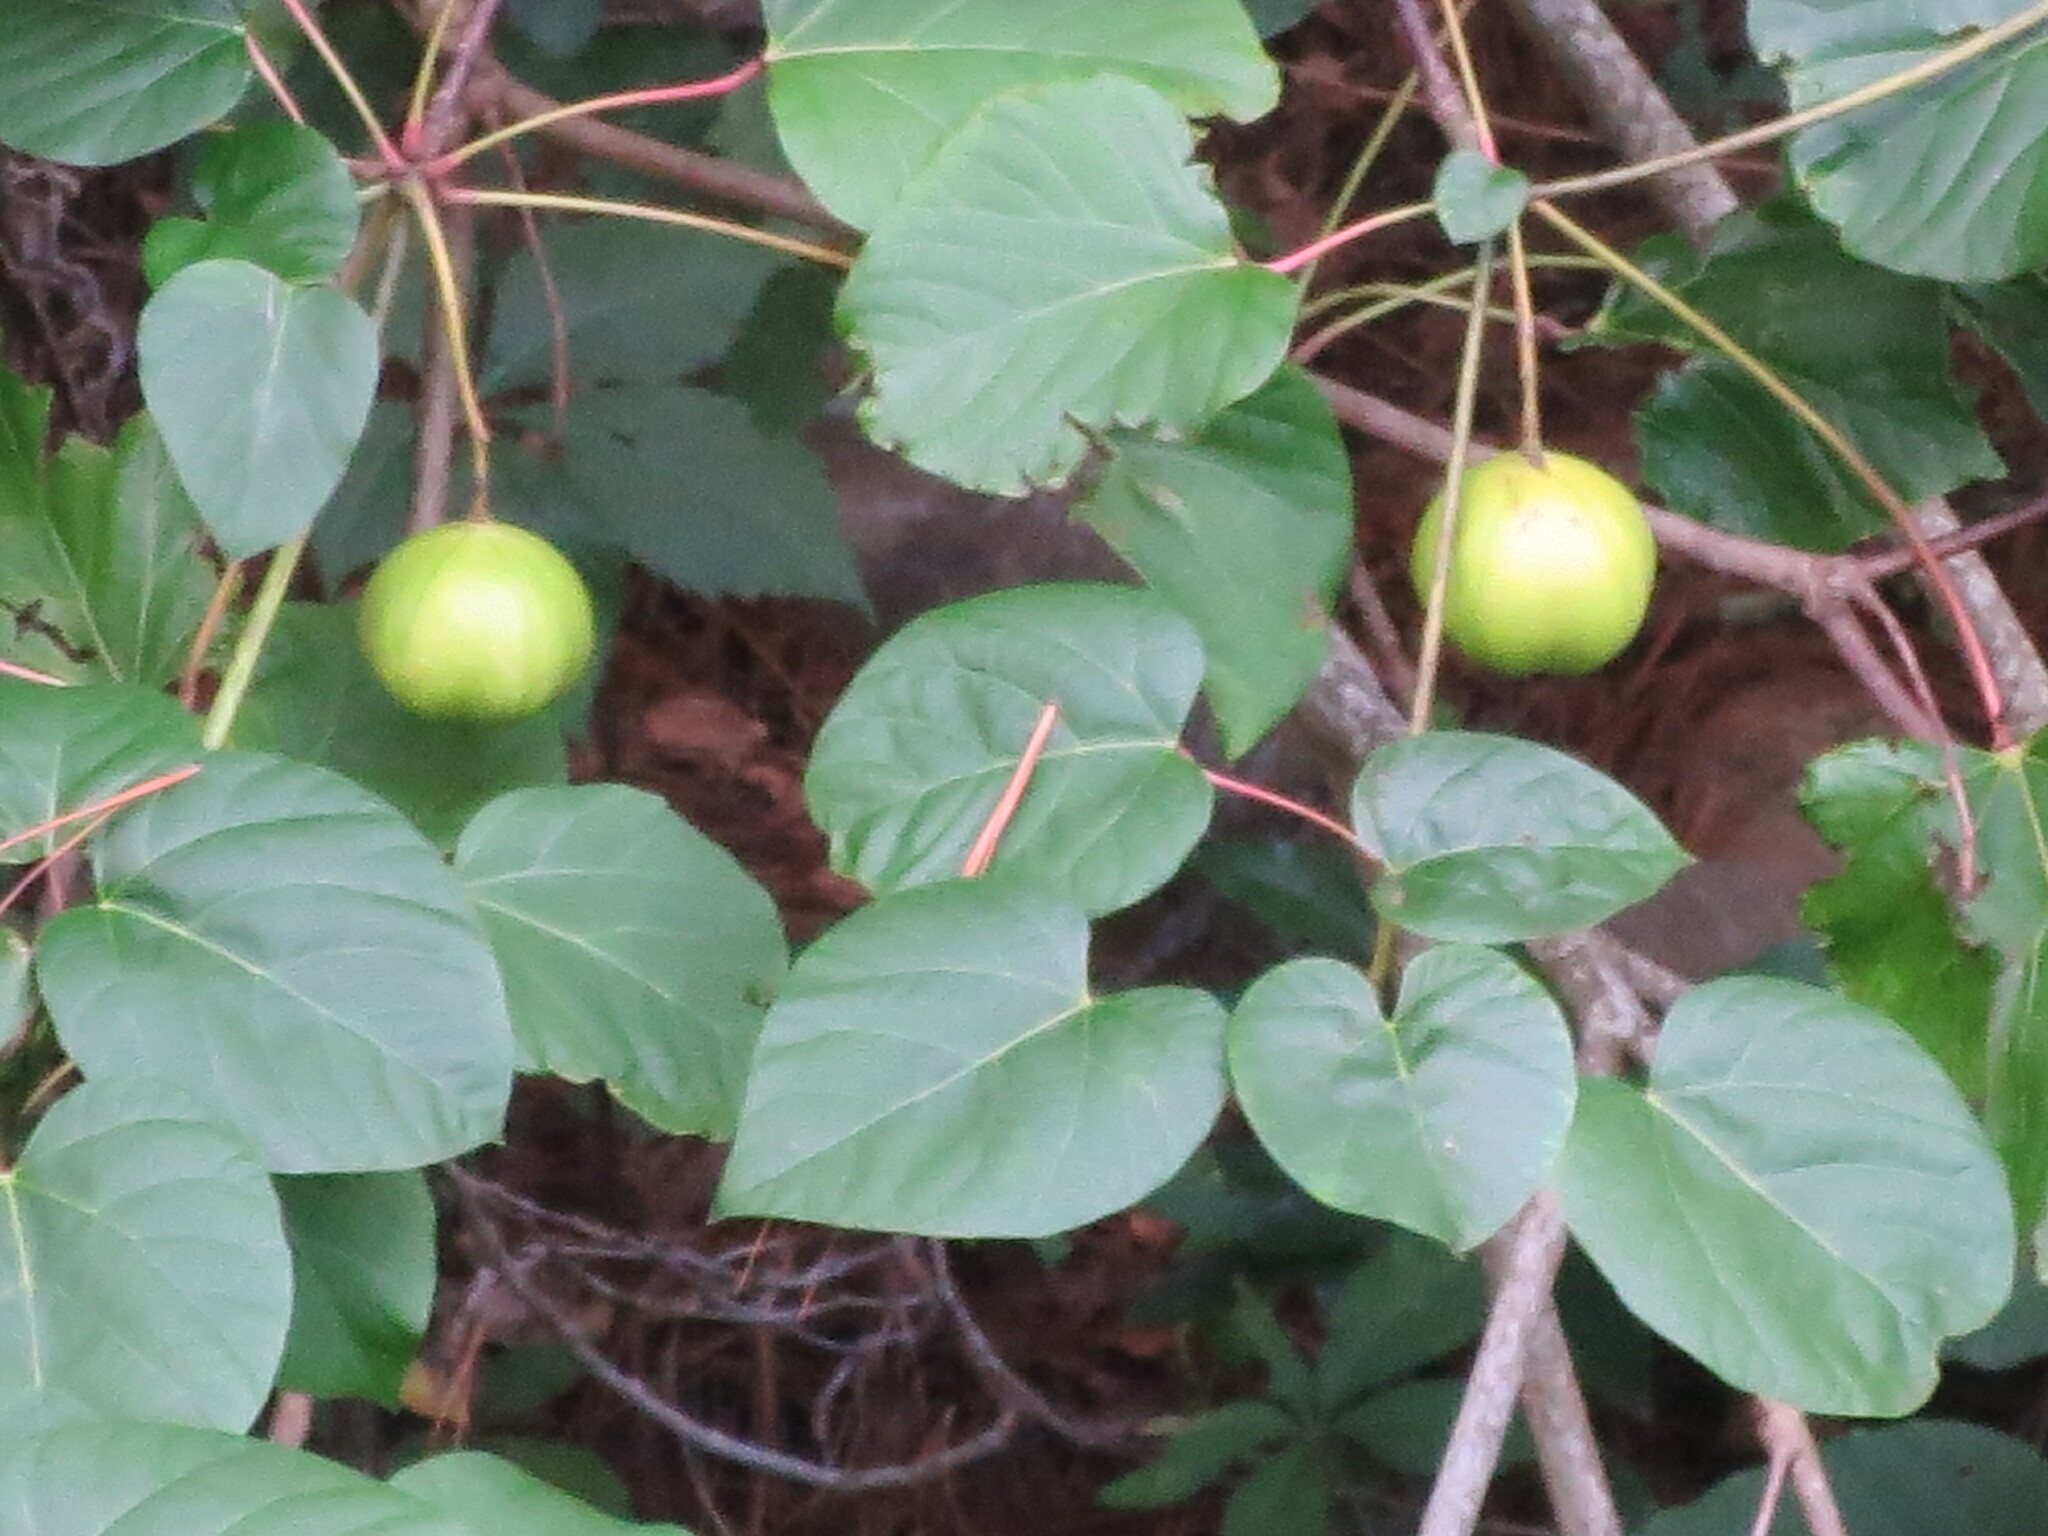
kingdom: Plantae
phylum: Tracheophyta
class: Magnoliopsida
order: Malpighiales
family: Euphorbiaceae
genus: Vernicia
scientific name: Vernicia fordii
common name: Tungoil tree
